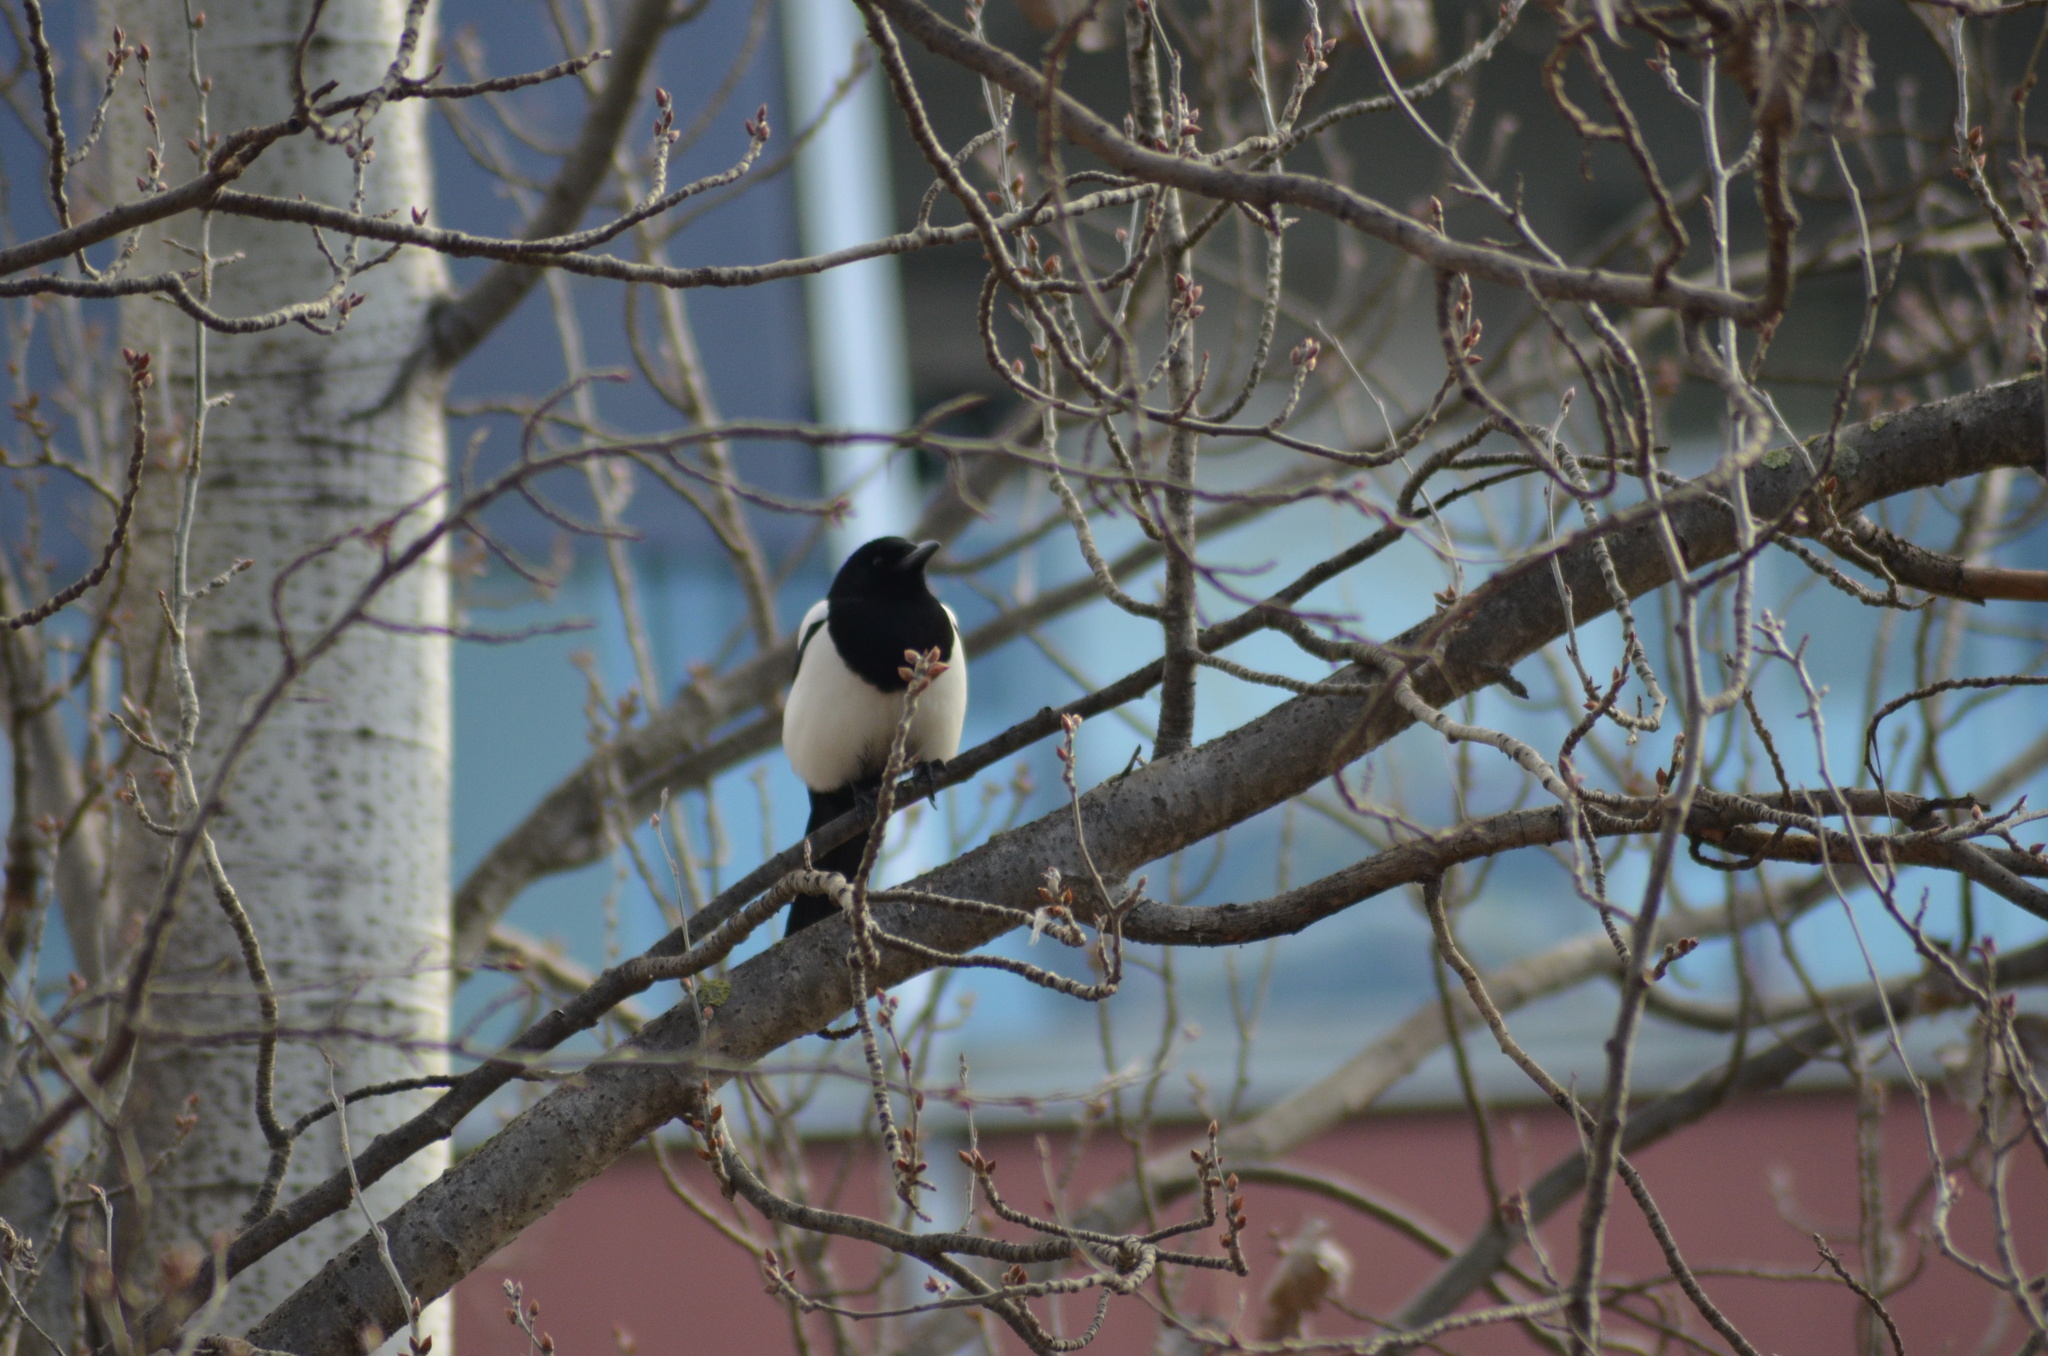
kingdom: Animalia
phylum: Chordata
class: Aves
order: Passeriformes
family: Corvidae
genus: Pica
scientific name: Pica pica
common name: Eurasian magpie
